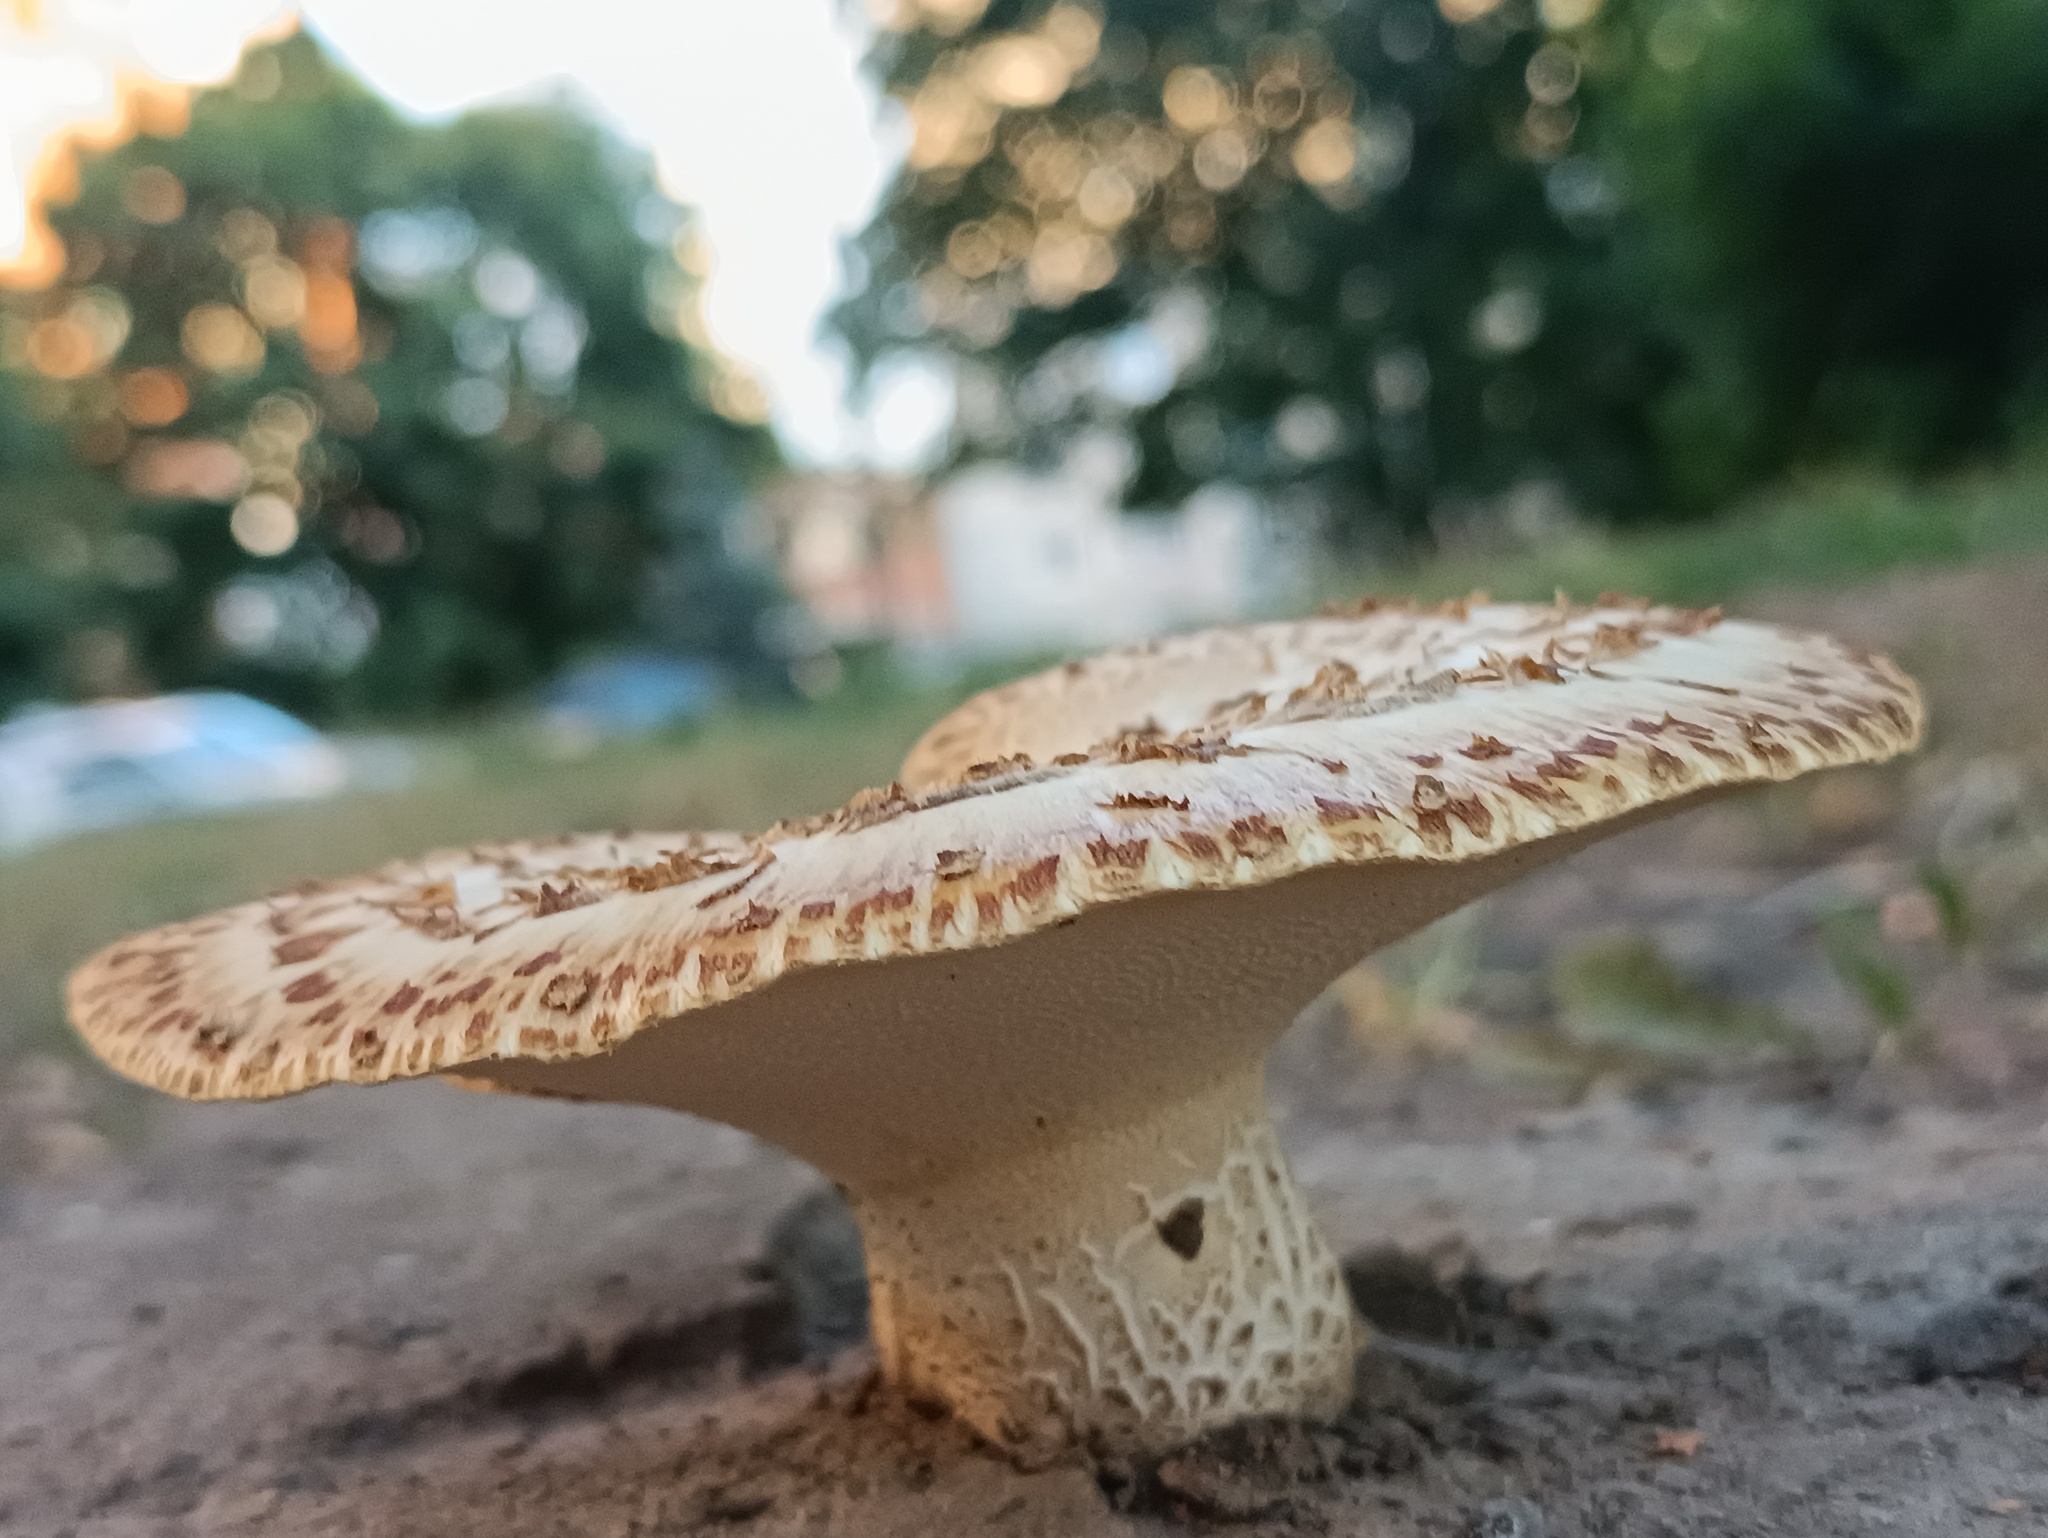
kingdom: Fungi
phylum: Basidiomycota
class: Agaricomycetes
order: Polyporales
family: Polyporaceae
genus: Cerioporus
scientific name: Cerioporus squamosus
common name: Dryad's saddle
